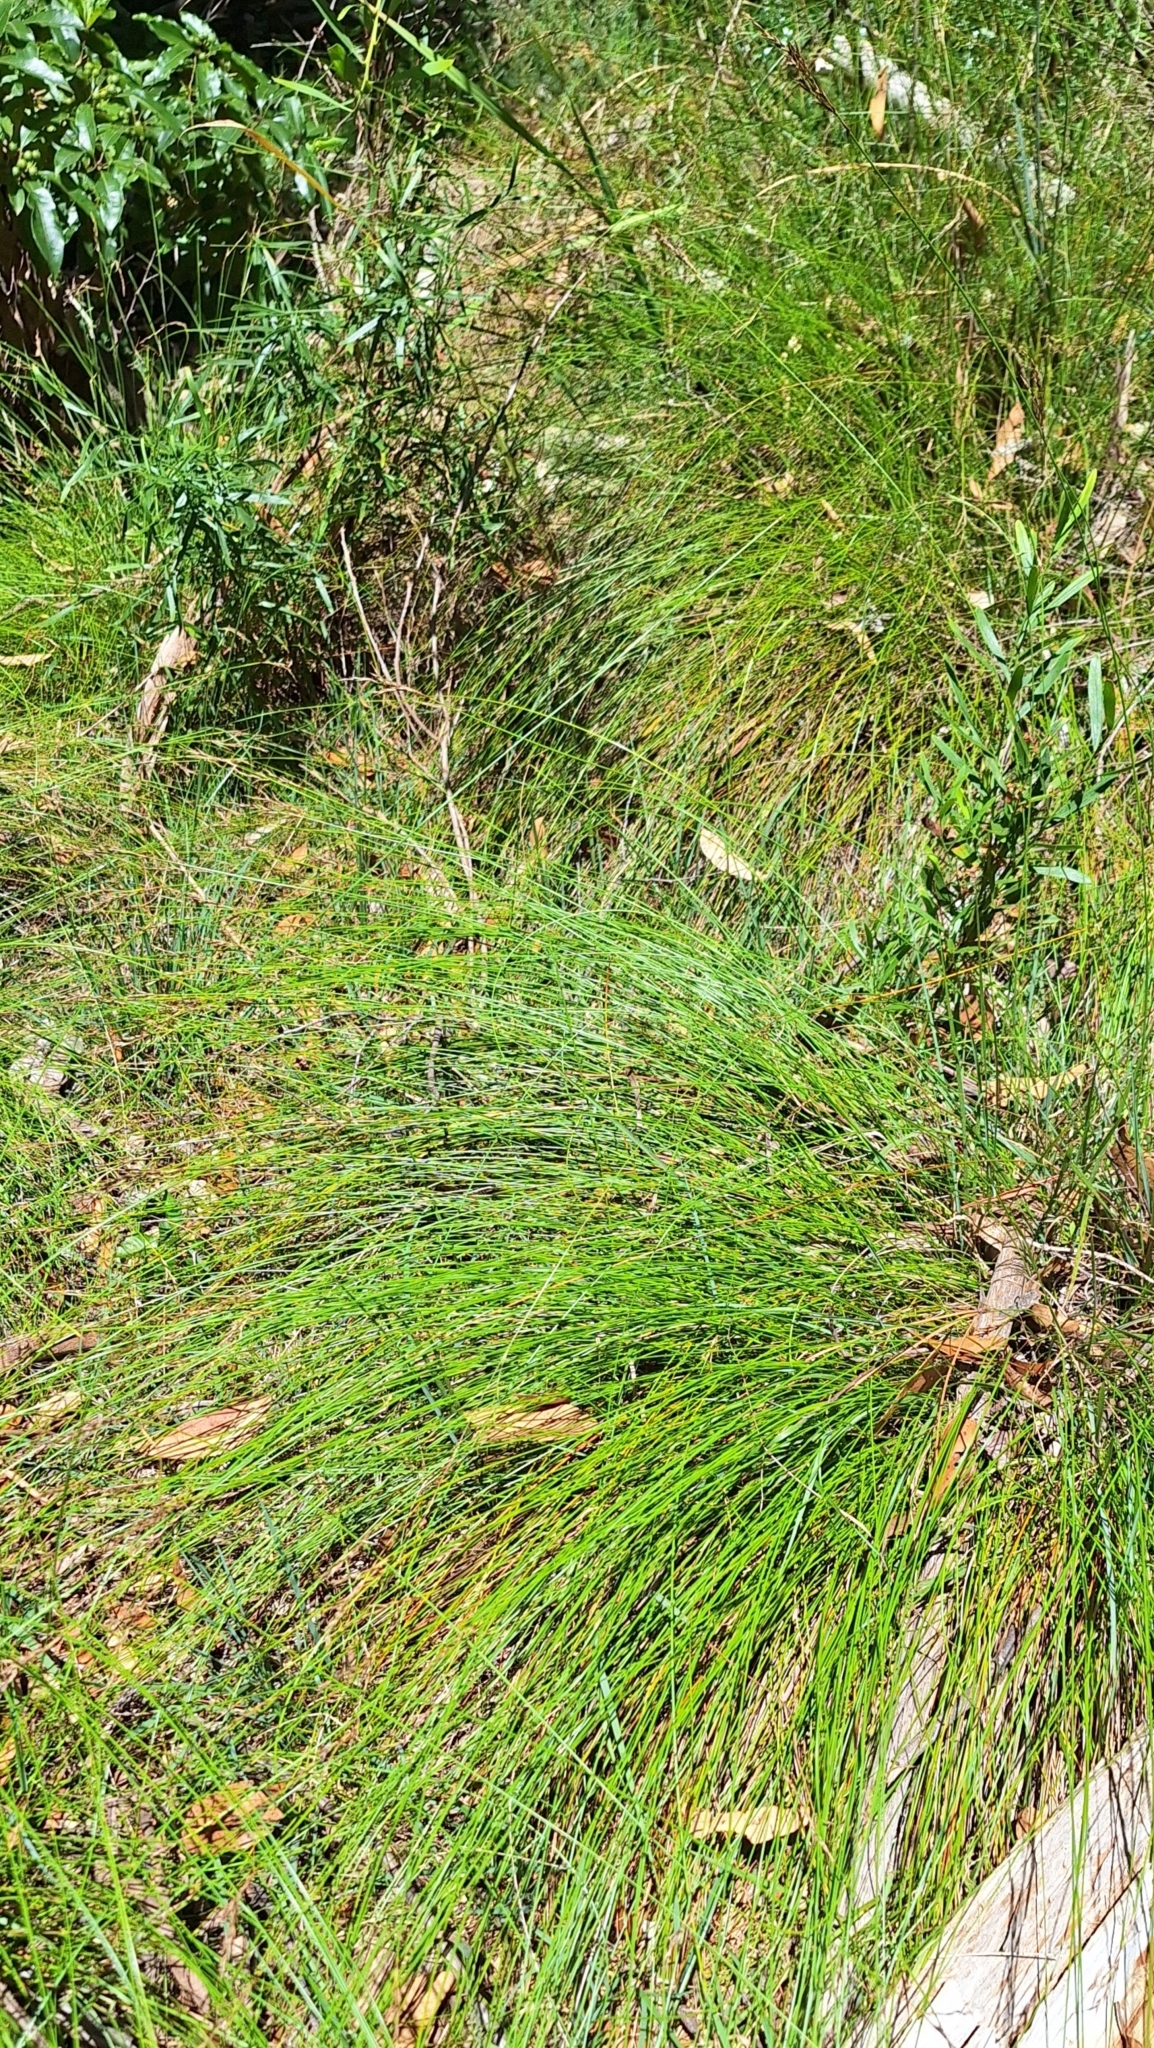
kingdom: Plantae
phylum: Tracheophyta
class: Liliopsida
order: Poales
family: Cyperaceae
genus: Lepidosperma
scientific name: Lepidosperma semiteres
